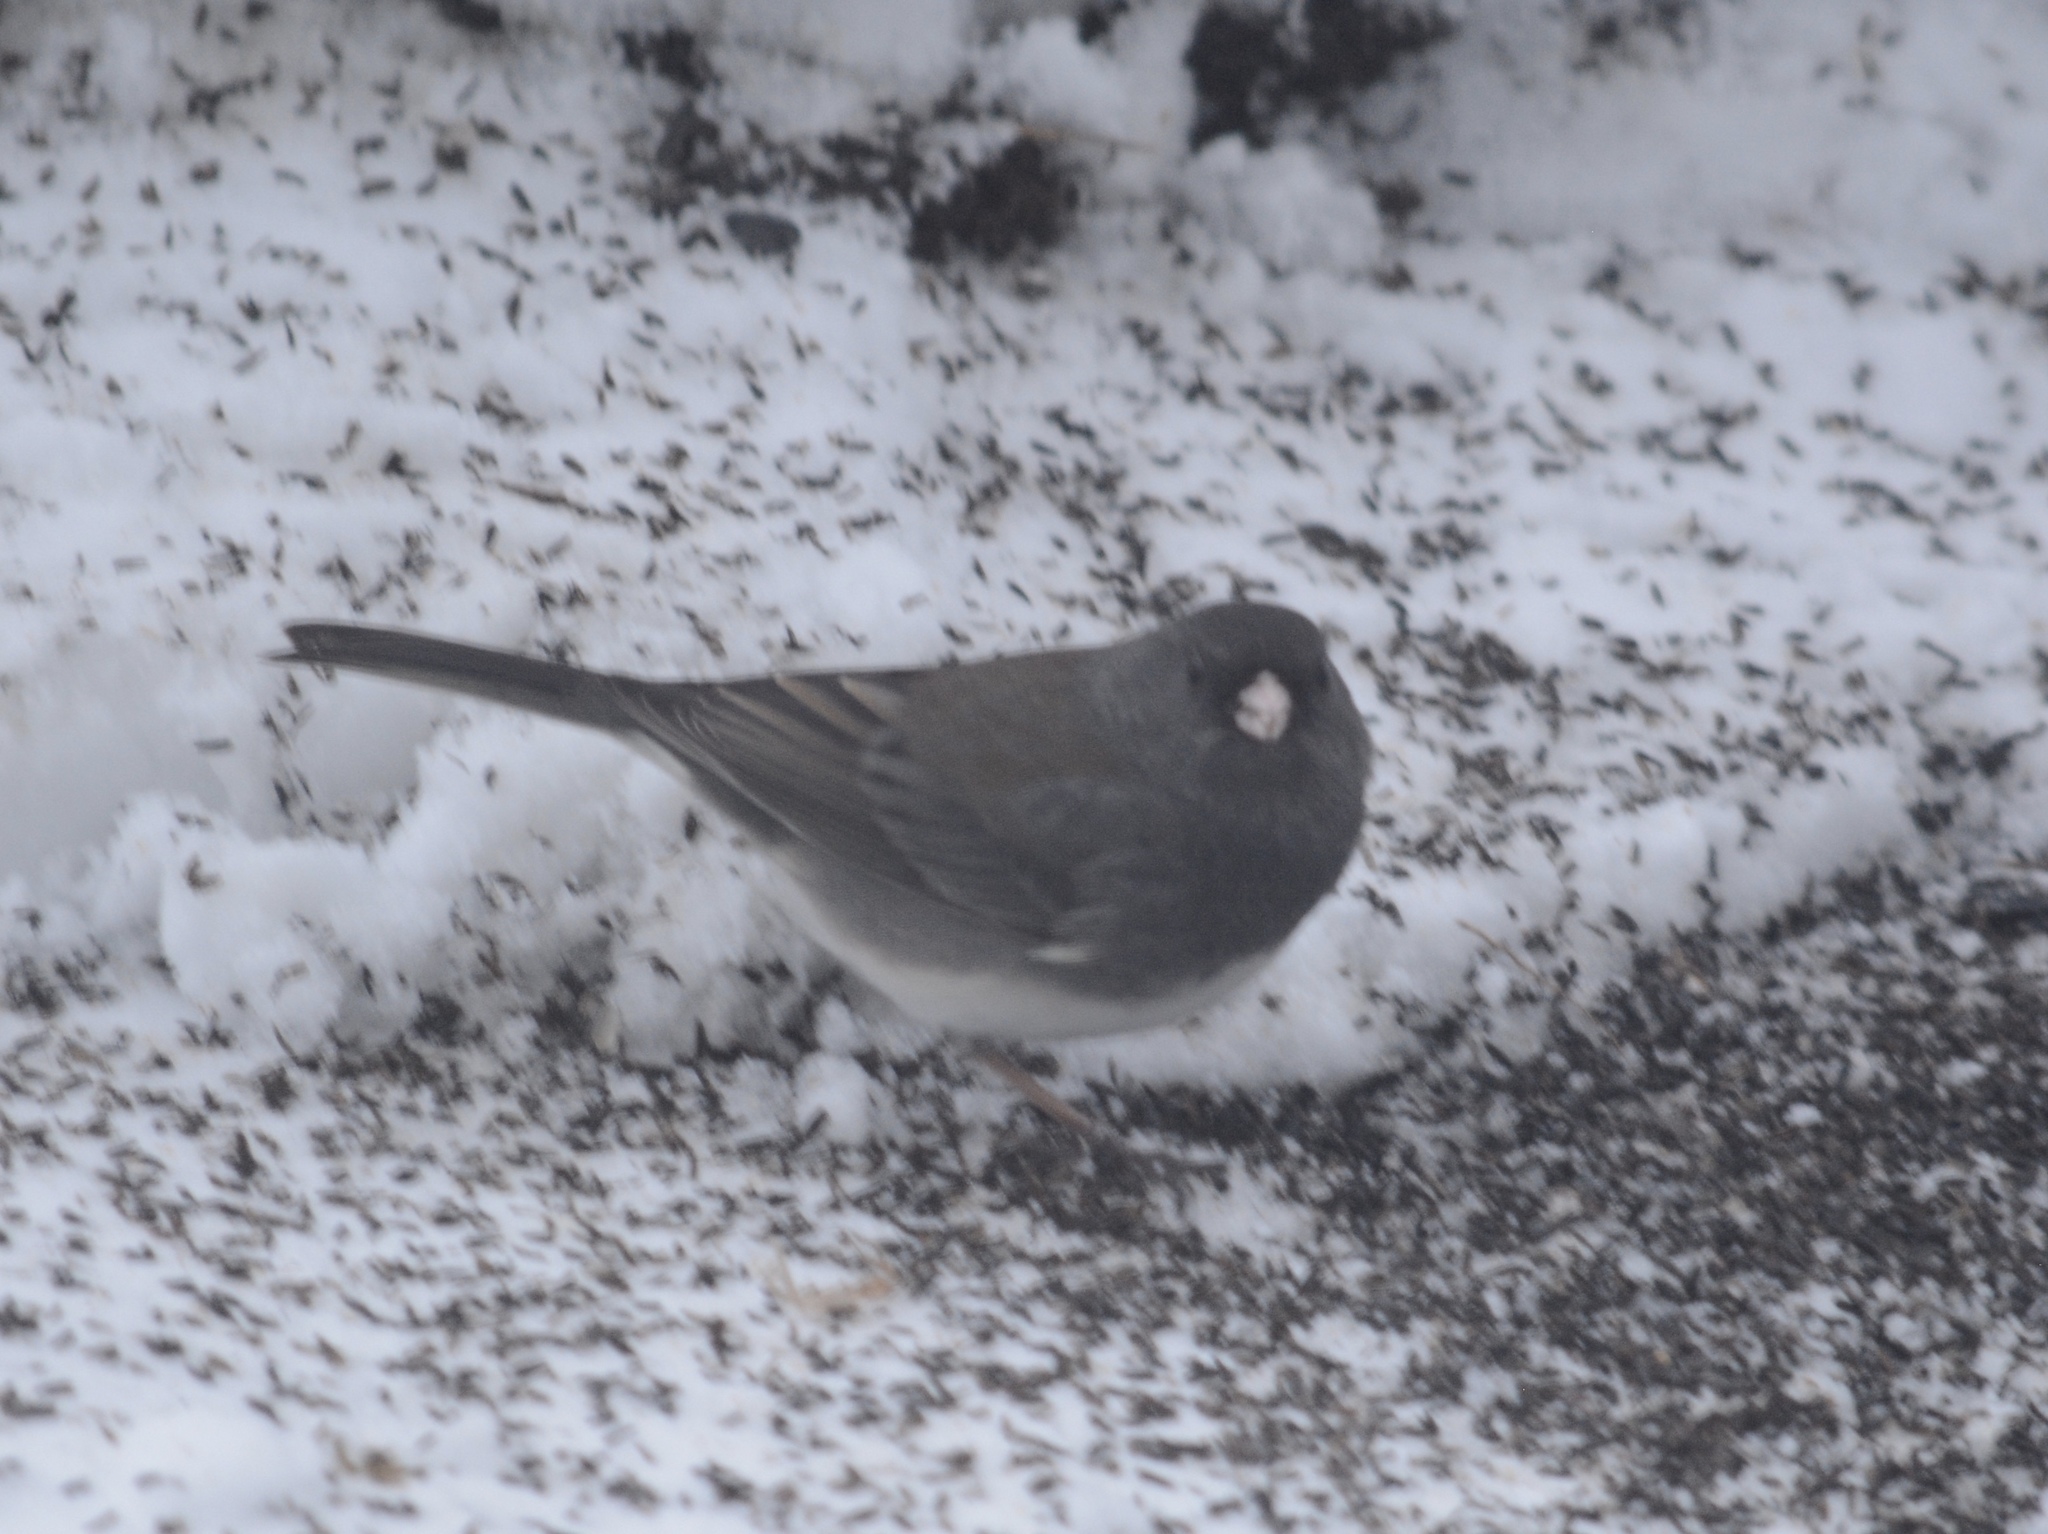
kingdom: Animalia
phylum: Chordata
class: Aves
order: Passeriformes
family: Passerellidae
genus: Junco
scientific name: Junco hyemalis
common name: Dark-eyed junco
